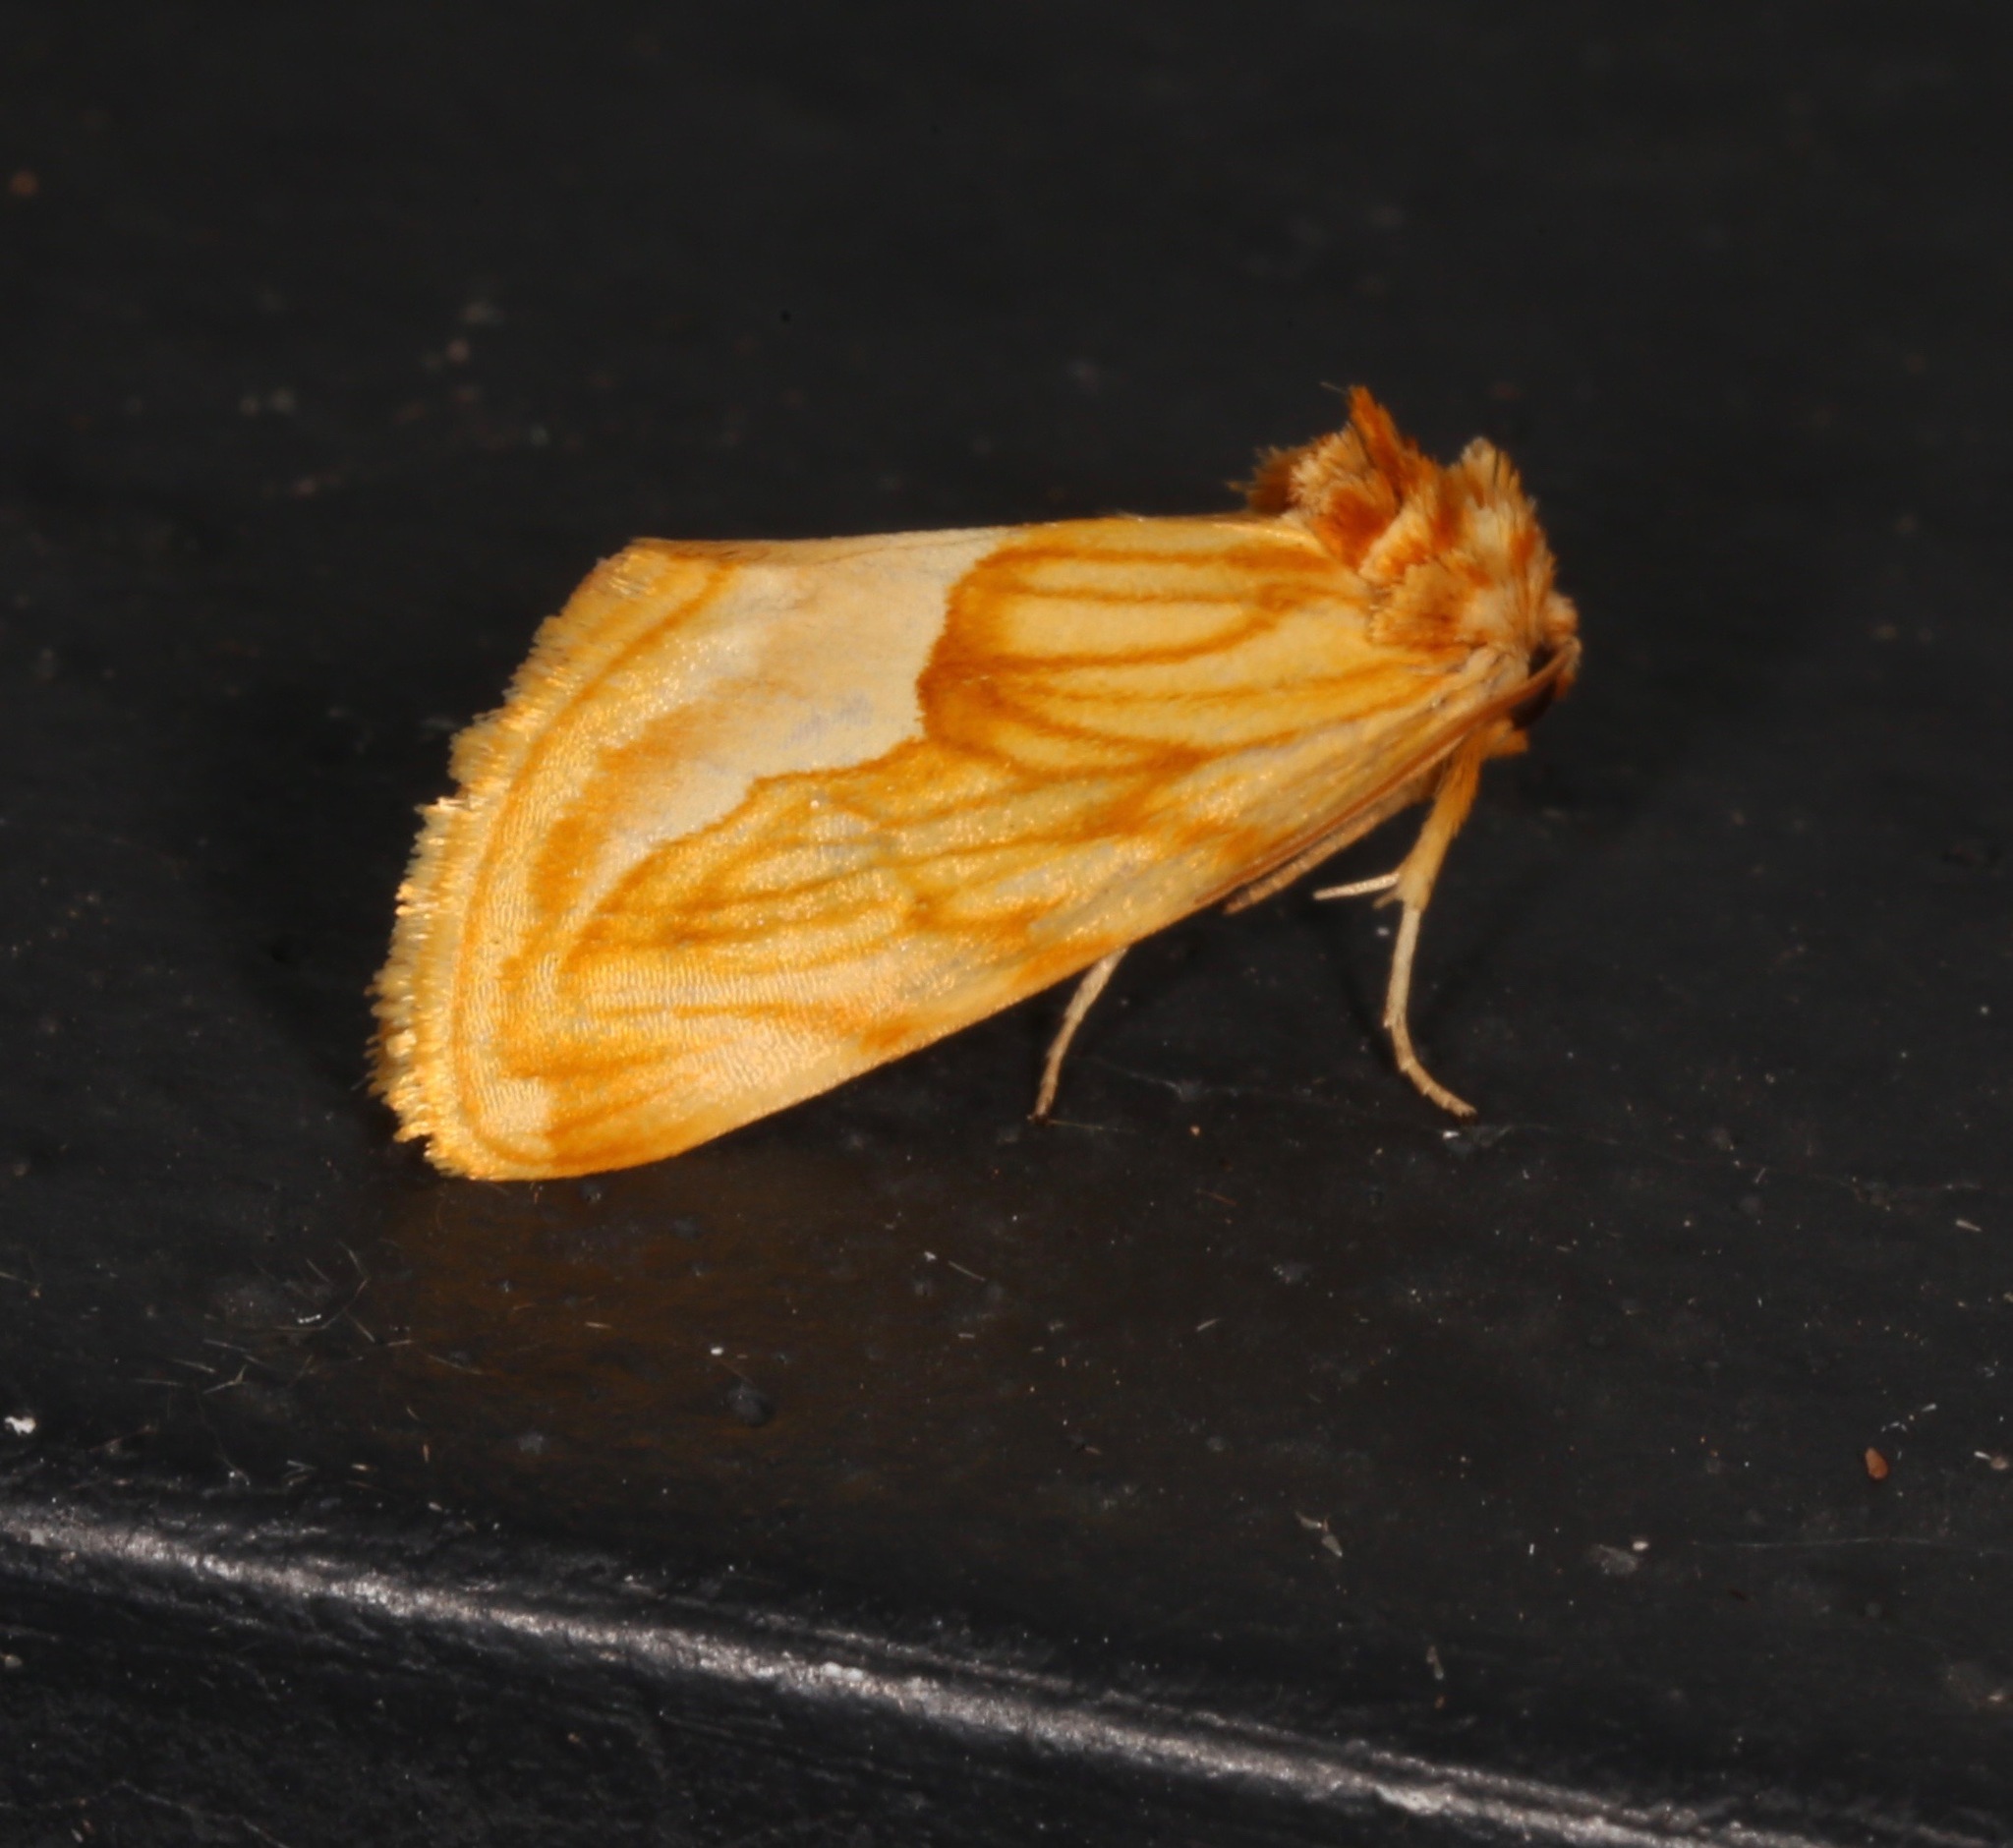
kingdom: Animalia
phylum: Arthropoda
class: Insecta
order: Lepidoptera
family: Noctuidae
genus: Cirrhophanus
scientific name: Cirrhophanus dyari
